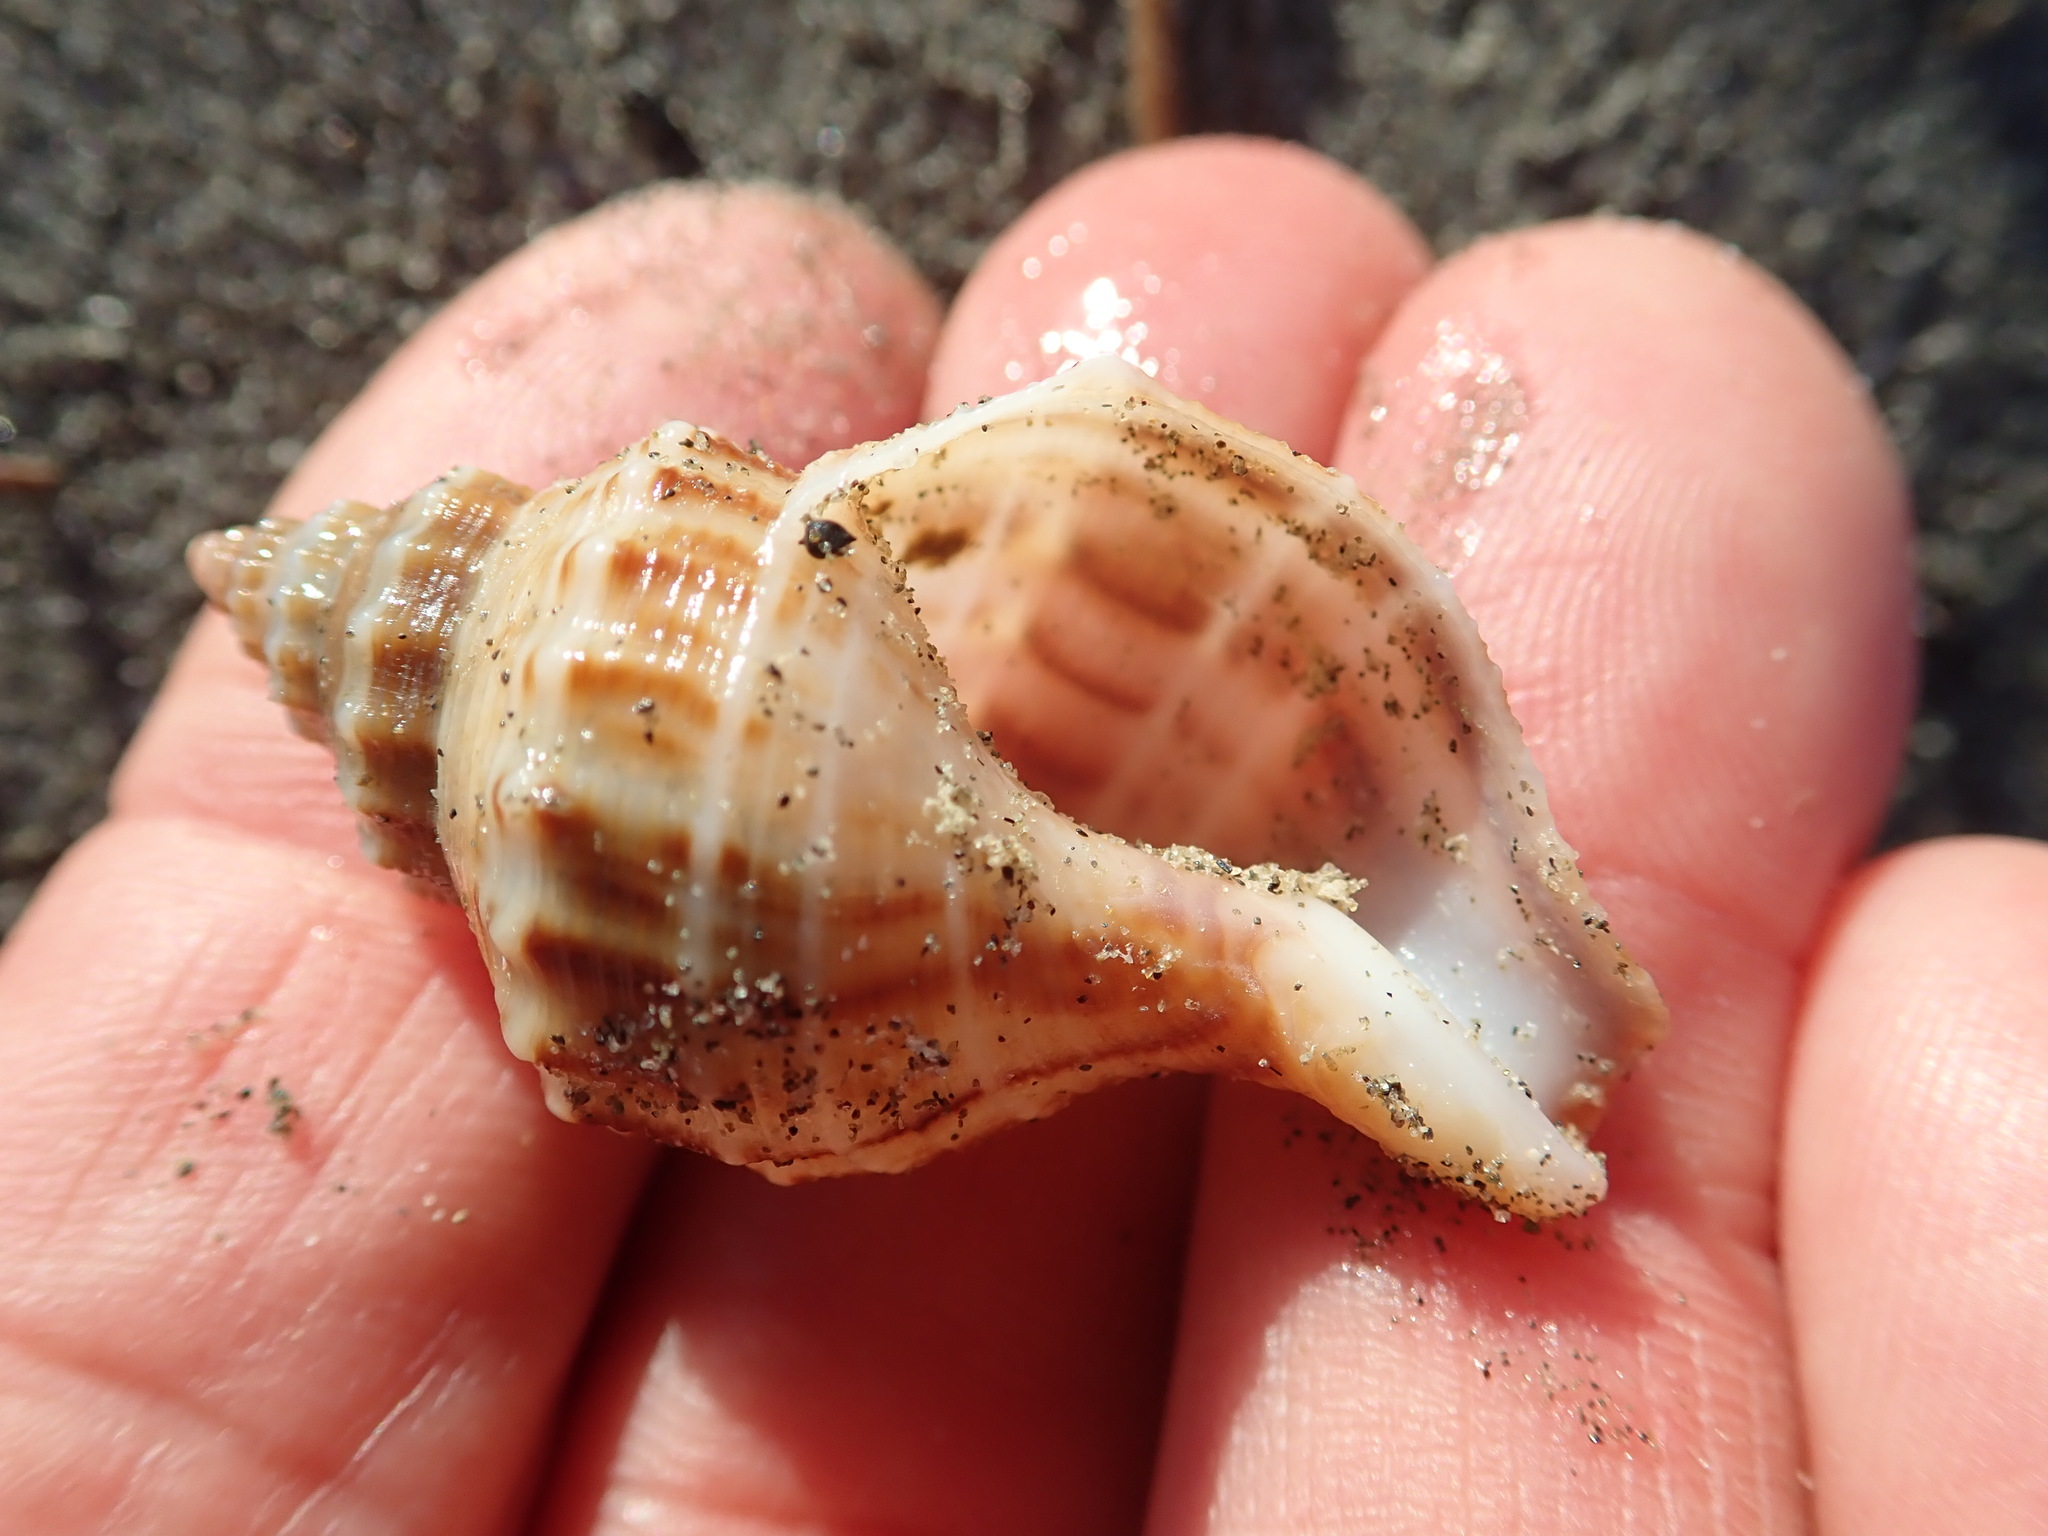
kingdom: Animalia
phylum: Mollusca
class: Gastropoda
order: Neogastropoda
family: Prosiphonidae
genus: Austrofusus
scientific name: Austrofusus glans
